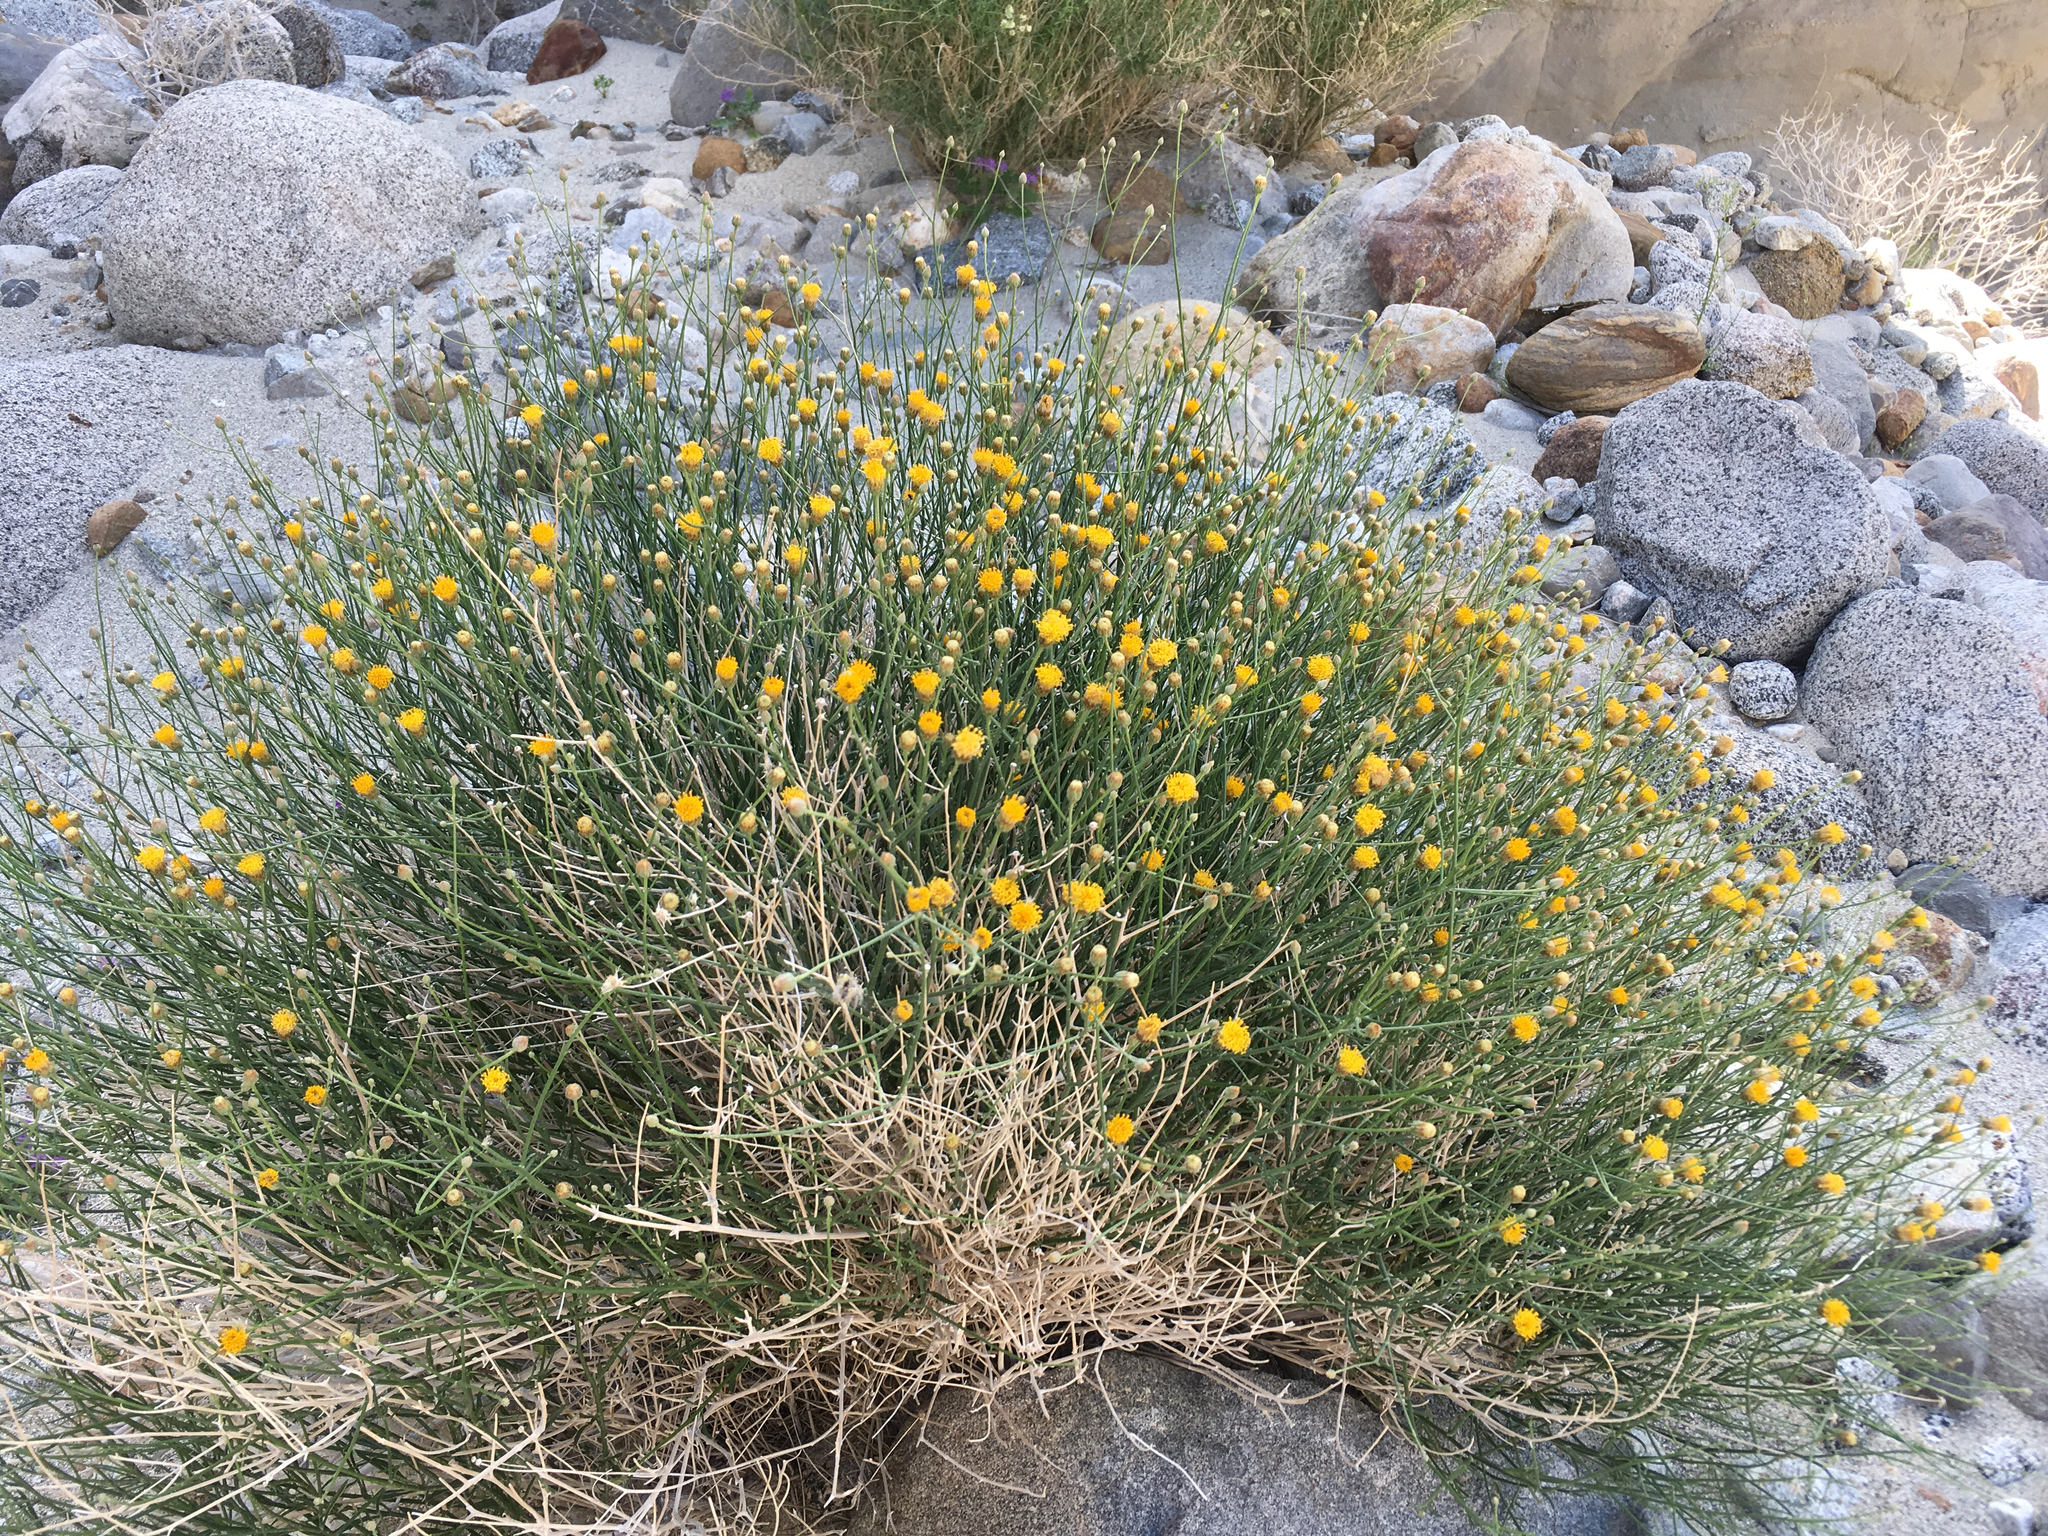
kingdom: Plantae
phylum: Tracheophyta
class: Magnoliopsida
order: Asterales
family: Asteraceae
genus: Bebbia
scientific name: Bebbia juncea
